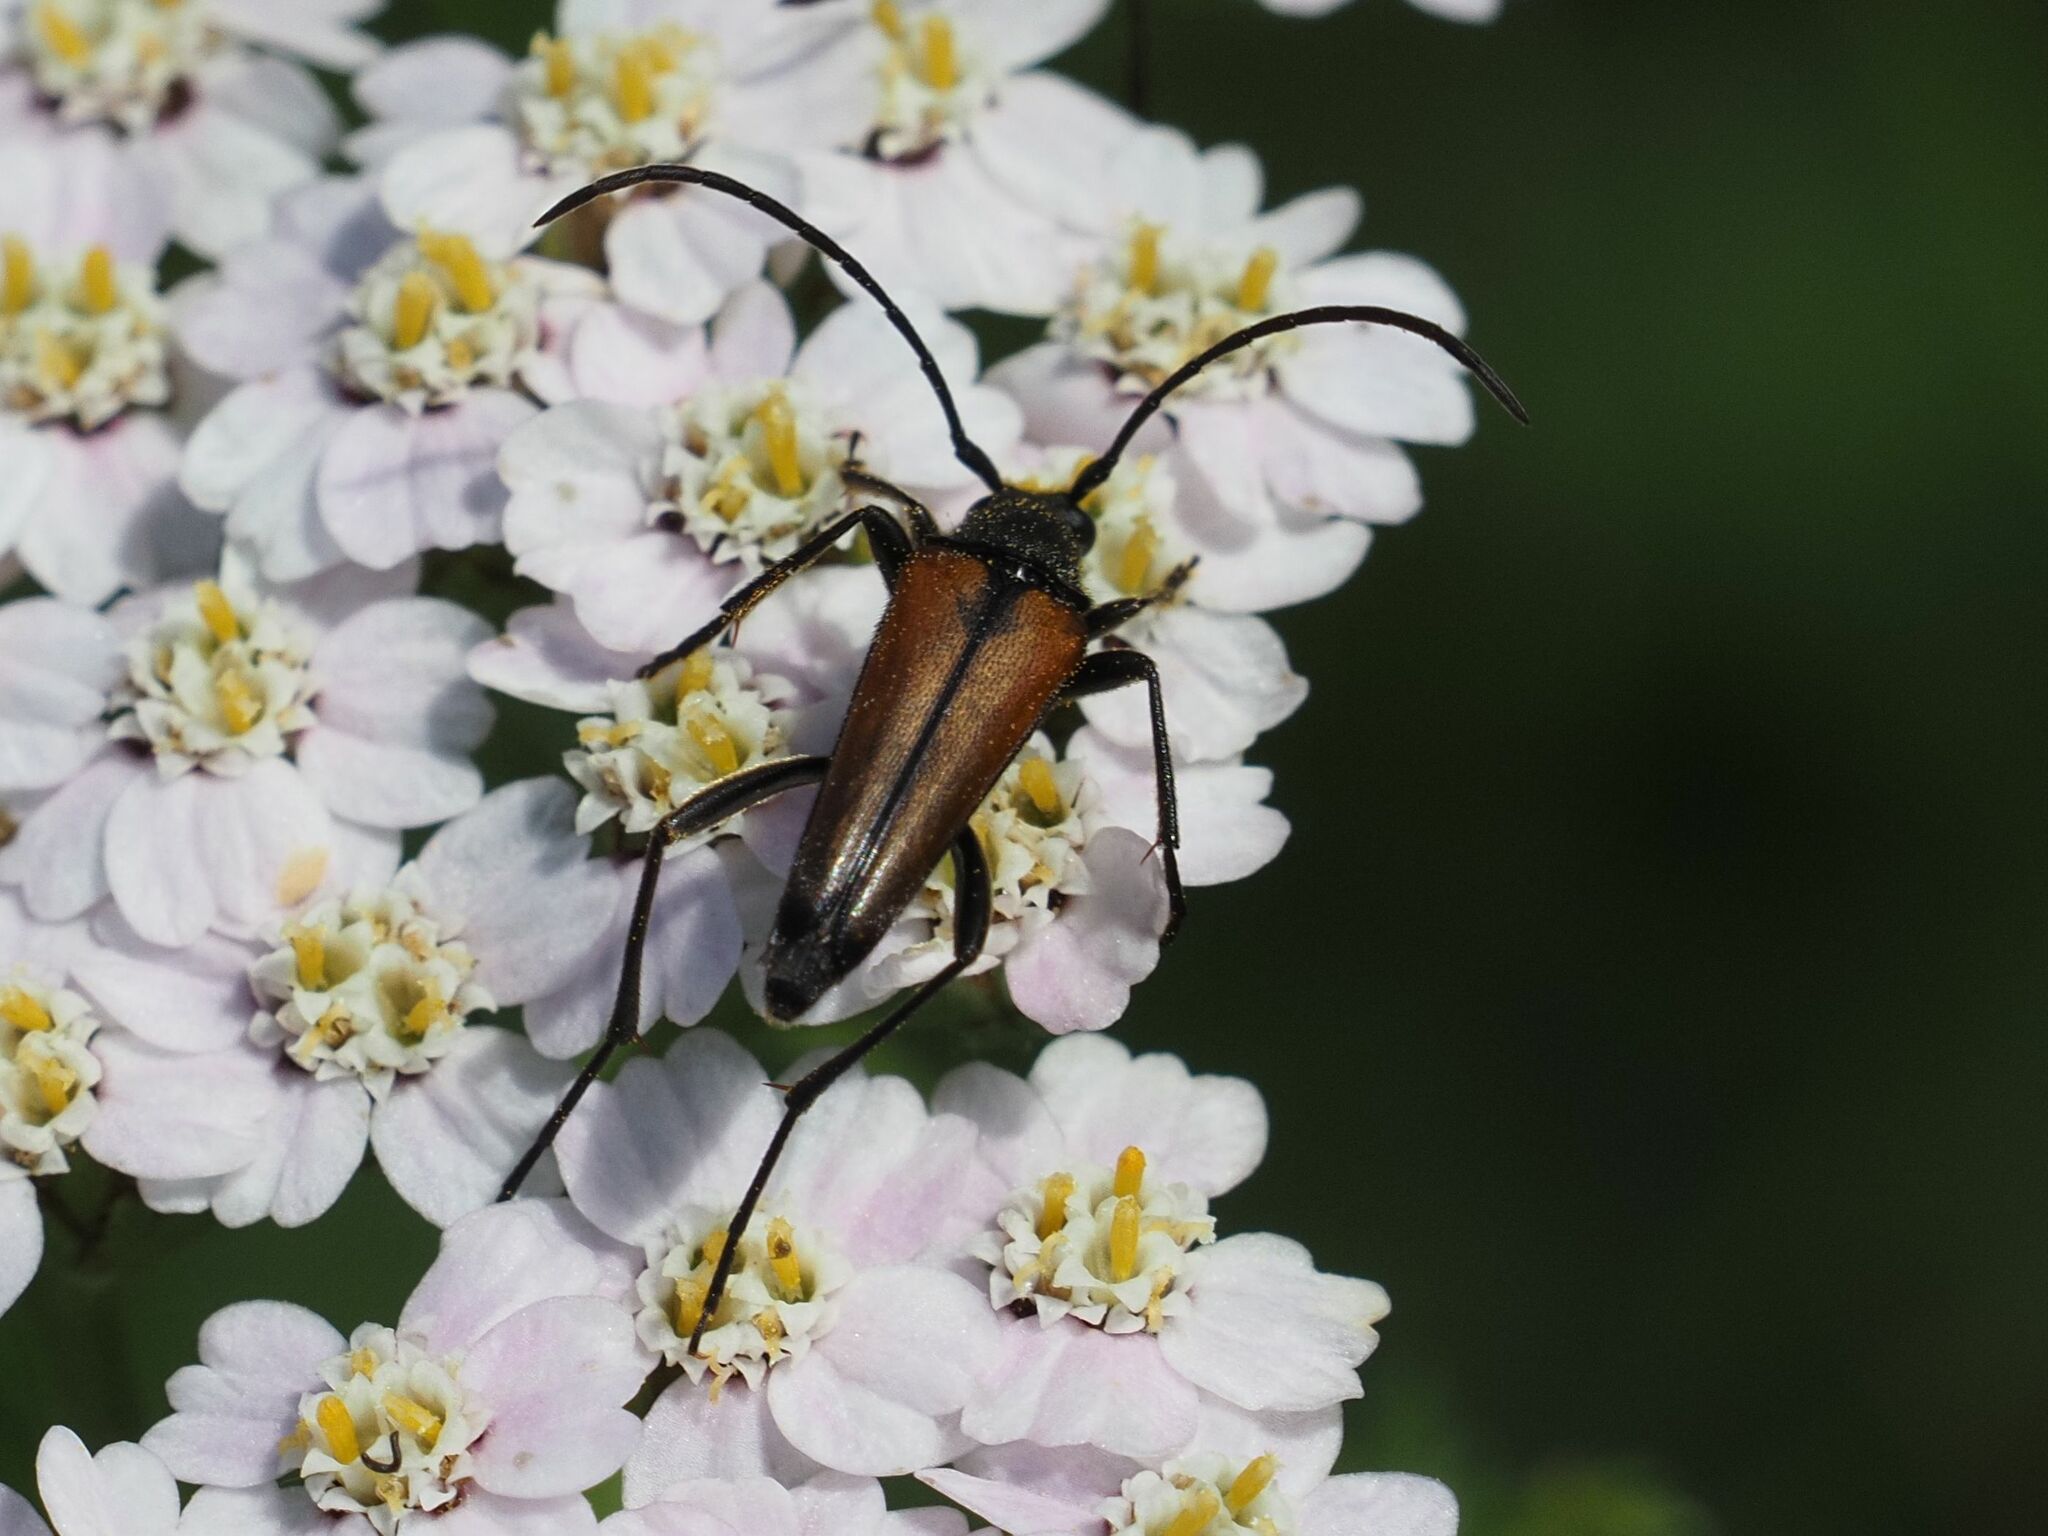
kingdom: Animalia
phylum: Arthropoda
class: Insecta
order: Coleoptera
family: Cerambycidae
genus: Stenurella
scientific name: Stenurella melanura
